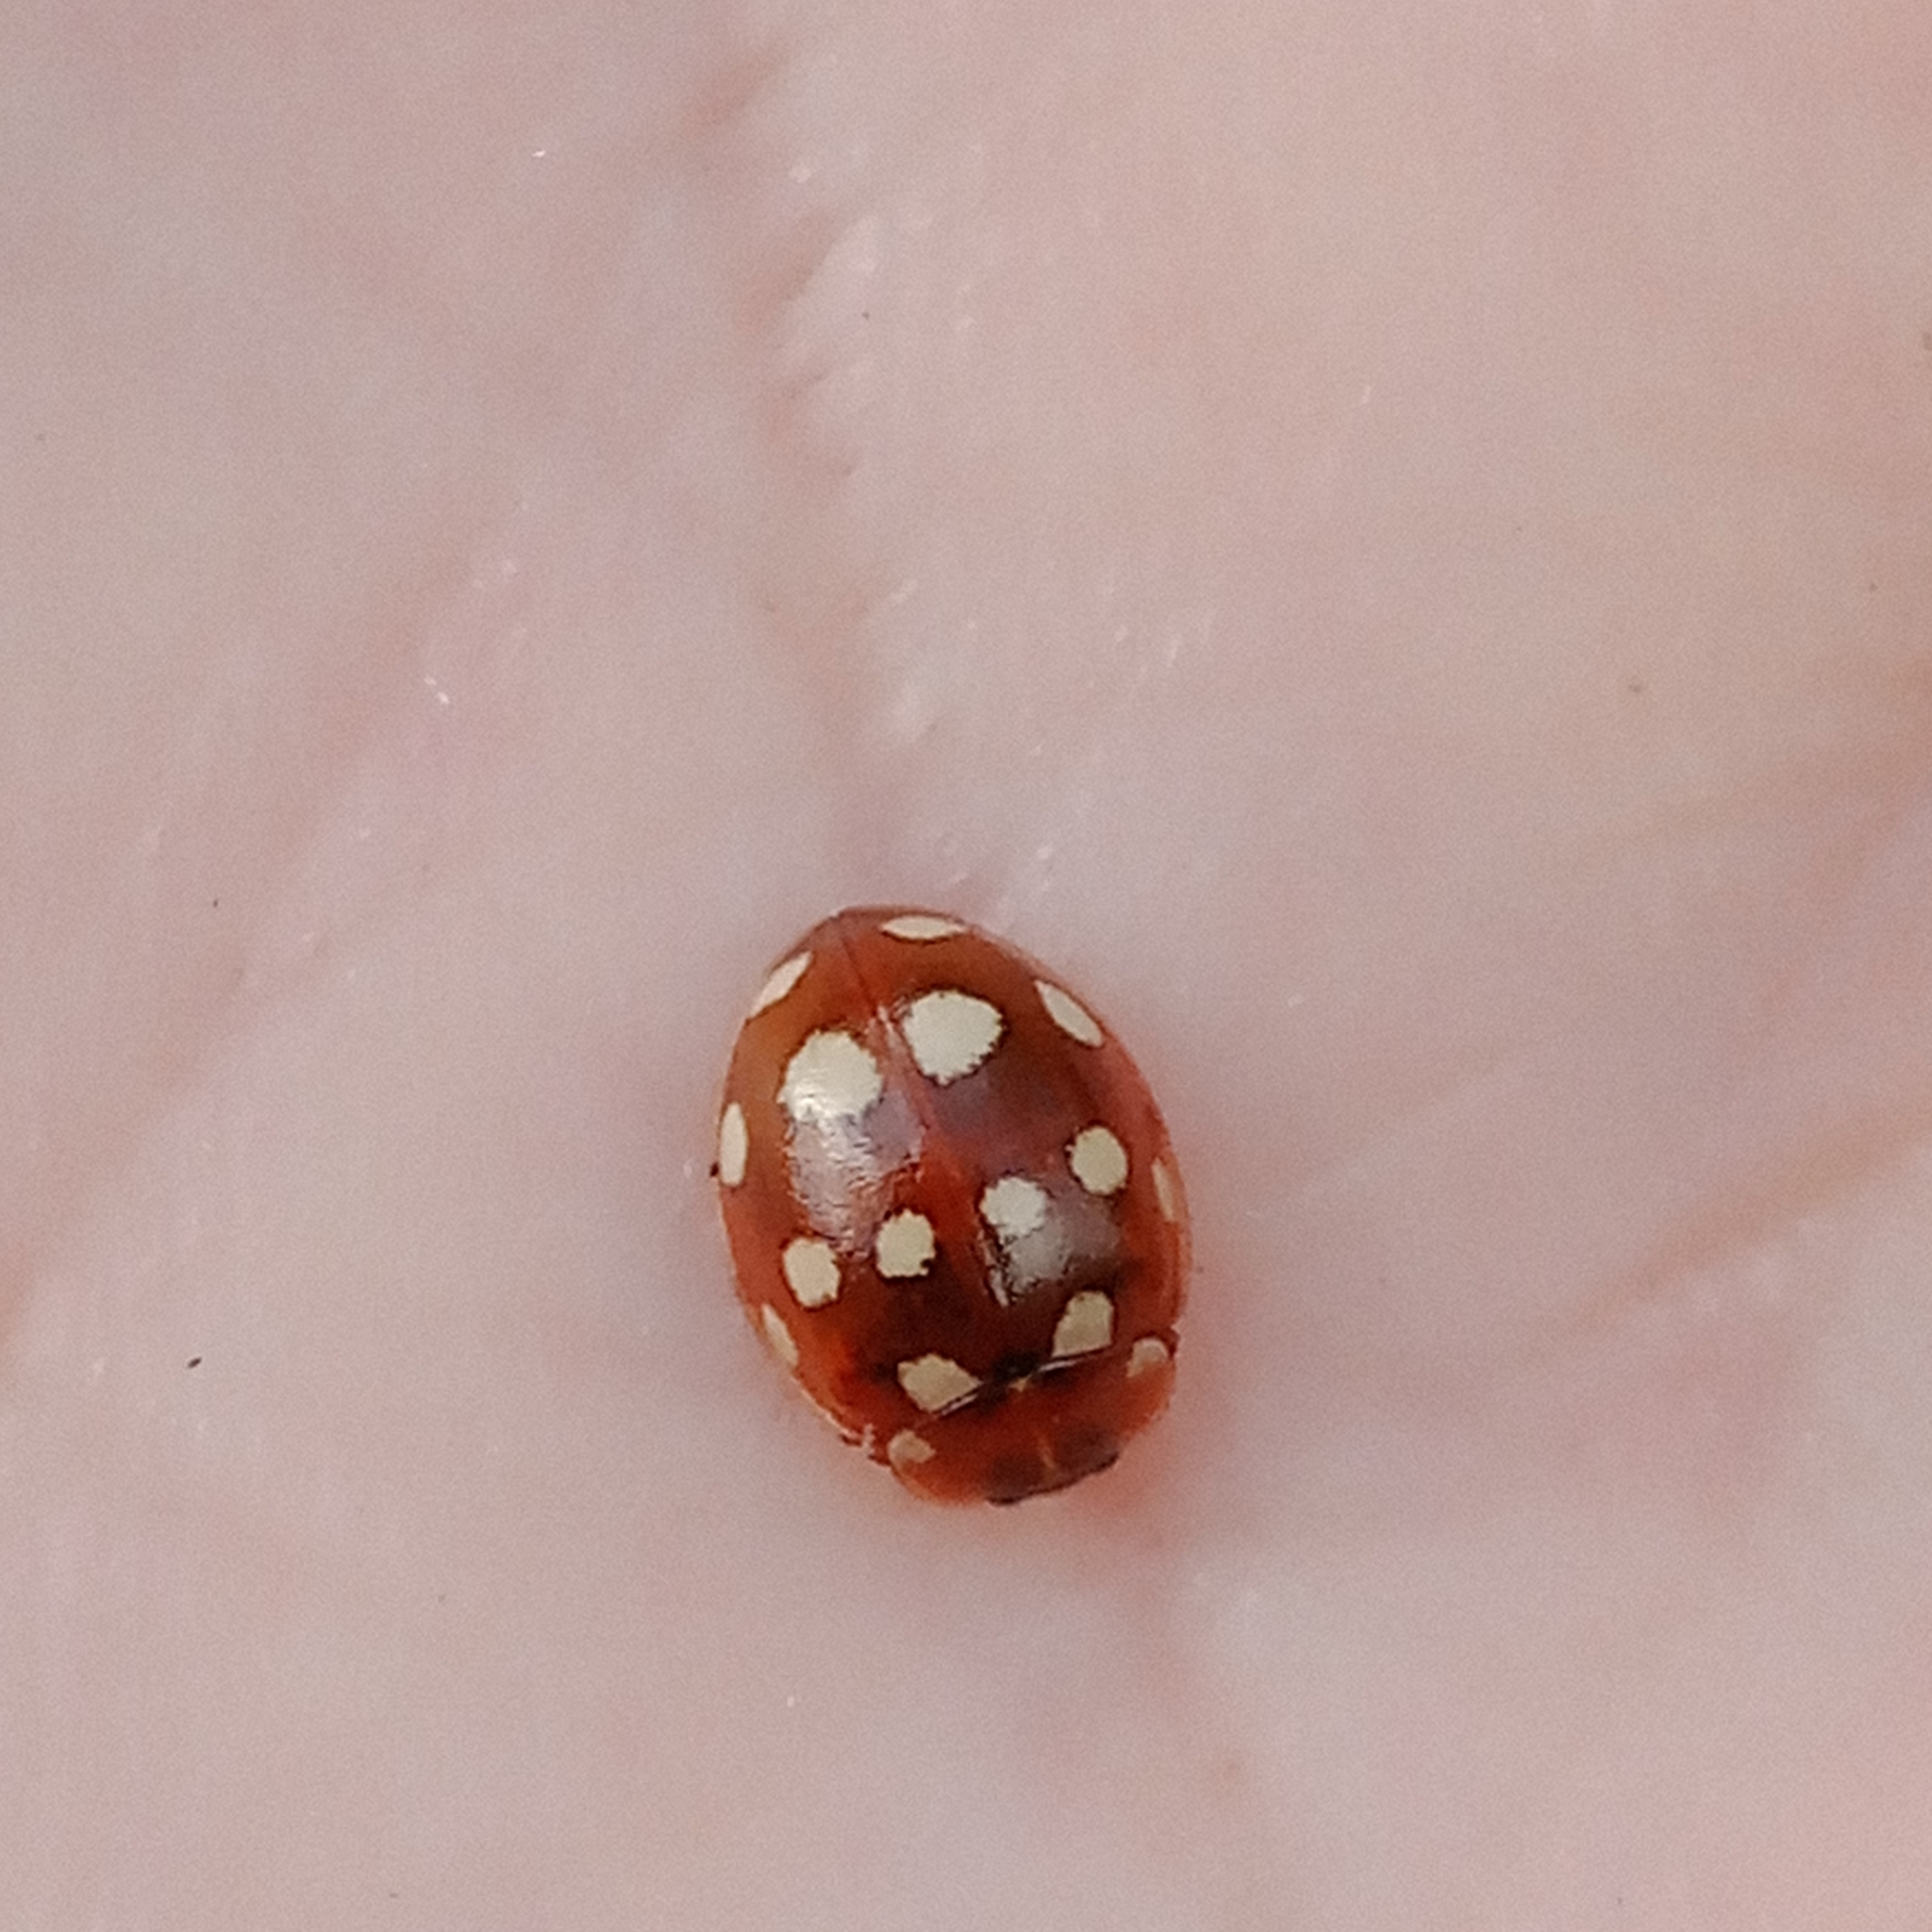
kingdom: Animalia
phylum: Arthropoda
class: Insecta
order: Coleoptera
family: Coccinellidae
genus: Calvia
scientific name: Calvia quatuordecimguttata
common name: Cream-spot ladybird
